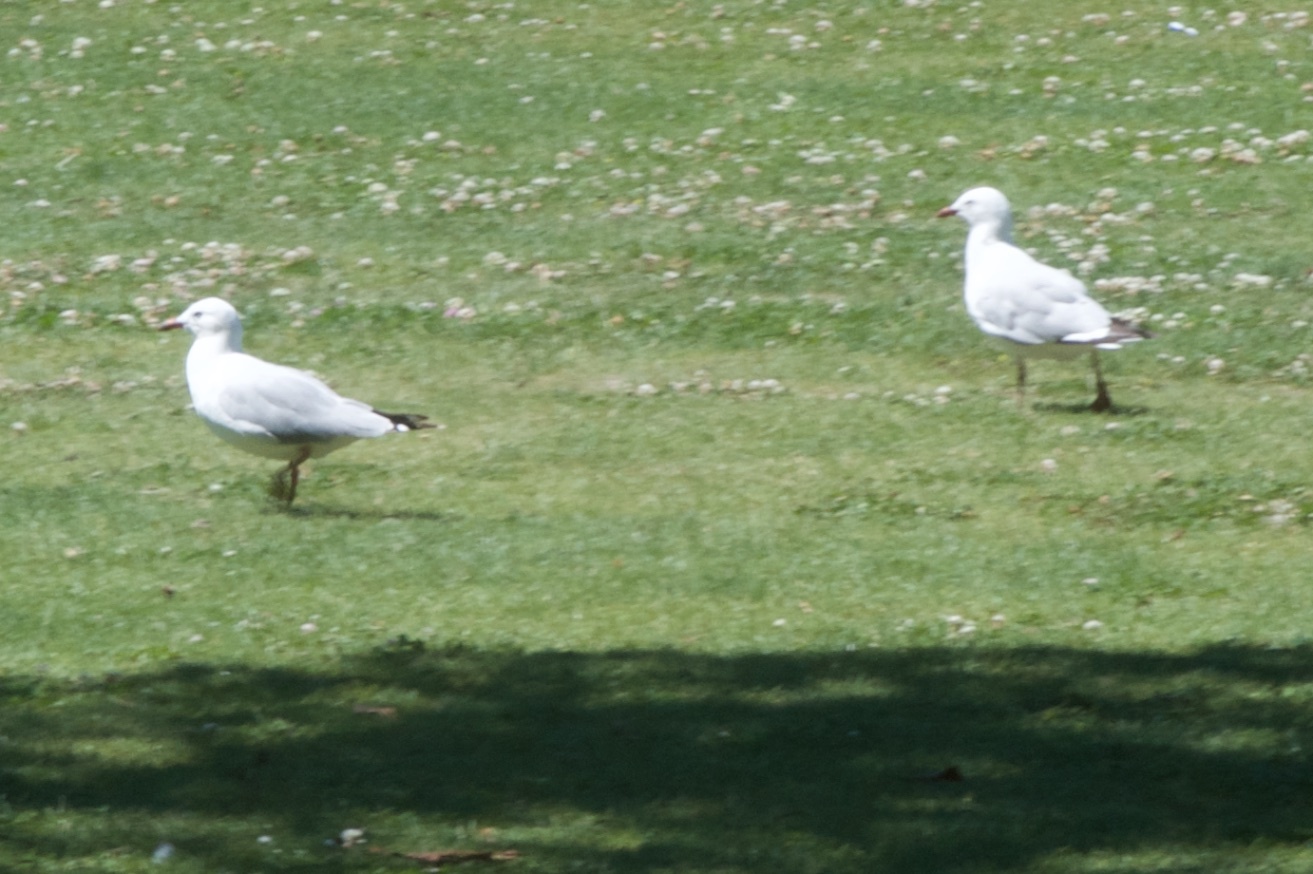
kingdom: Animalia
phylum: Chordata
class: Aves
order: Charadriiformes
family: Laridae
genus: Chroicocephalus
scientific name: Chroicocephalus novaehollandiae
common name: Silver gull
